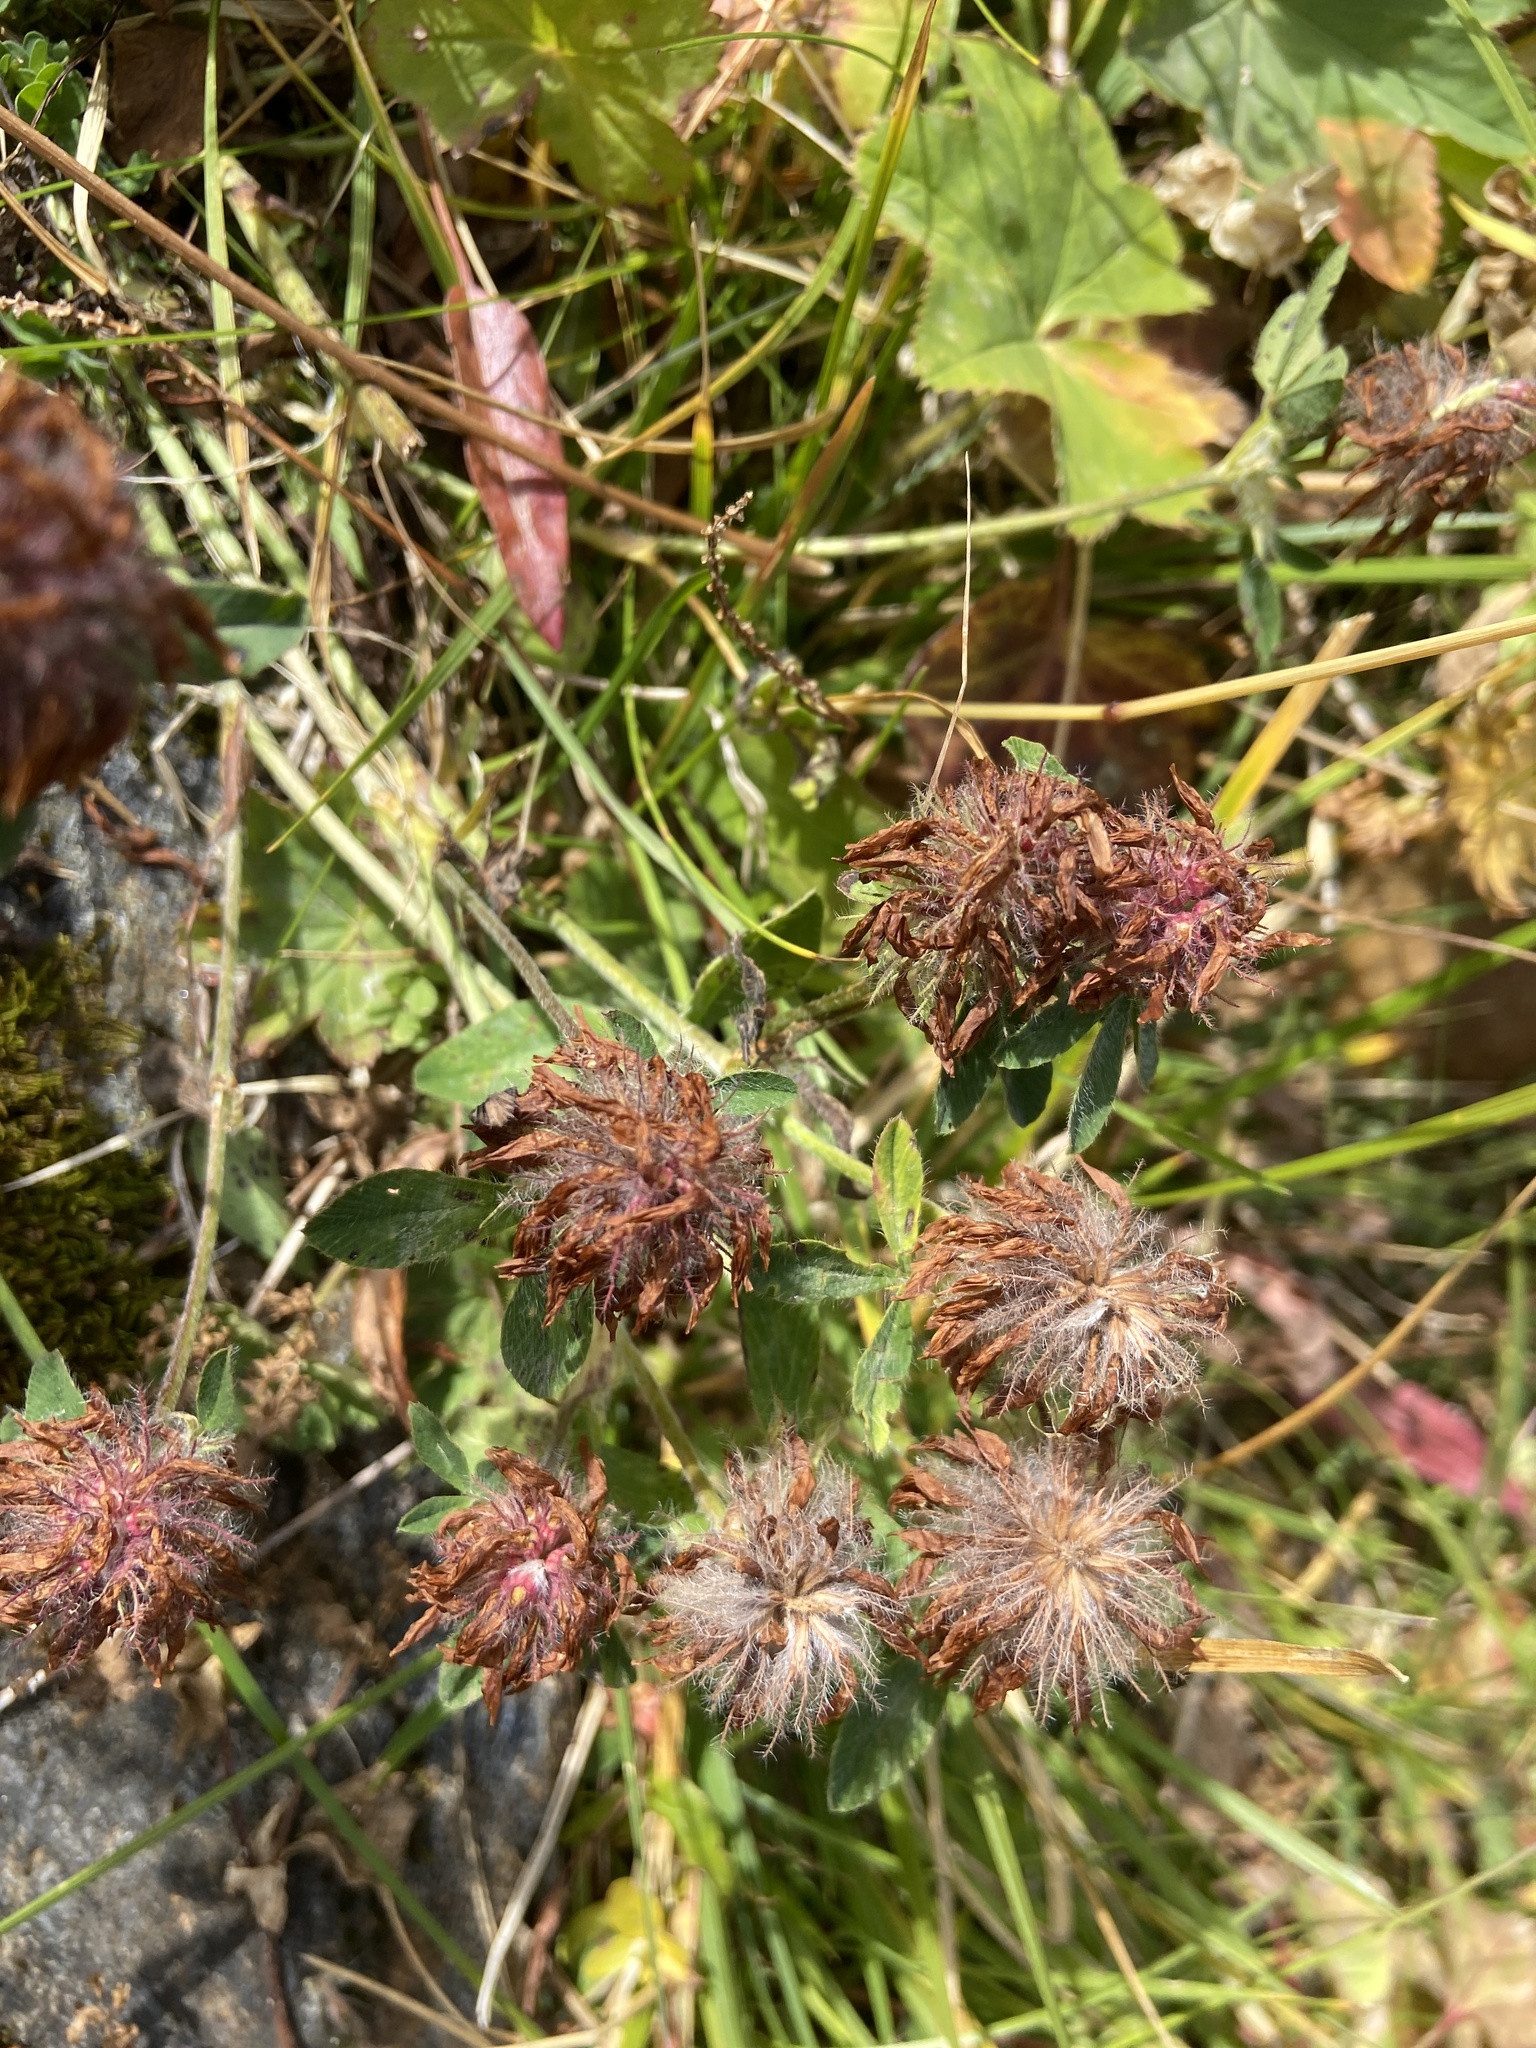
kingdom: Plantae
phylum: Tracheophyta
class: Magnoliopsida
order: Fabales
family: Fabaceae
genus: Trifolium
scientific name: Trifolium pratense
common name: Red clover
